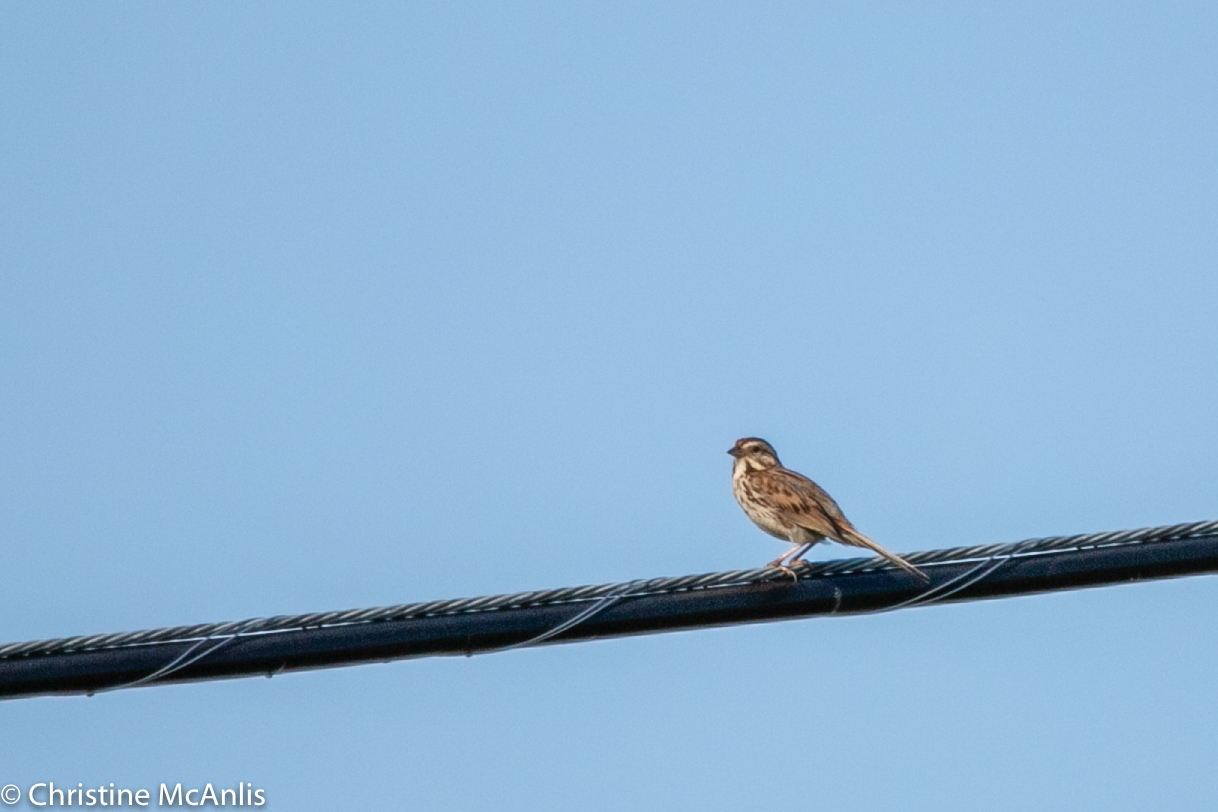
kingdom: Animalia
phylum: Chordata
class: Aves
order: Passeriformes
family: Passerellidae
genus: Melospiza
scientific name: Melospiza melodia
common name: Song sparrow
